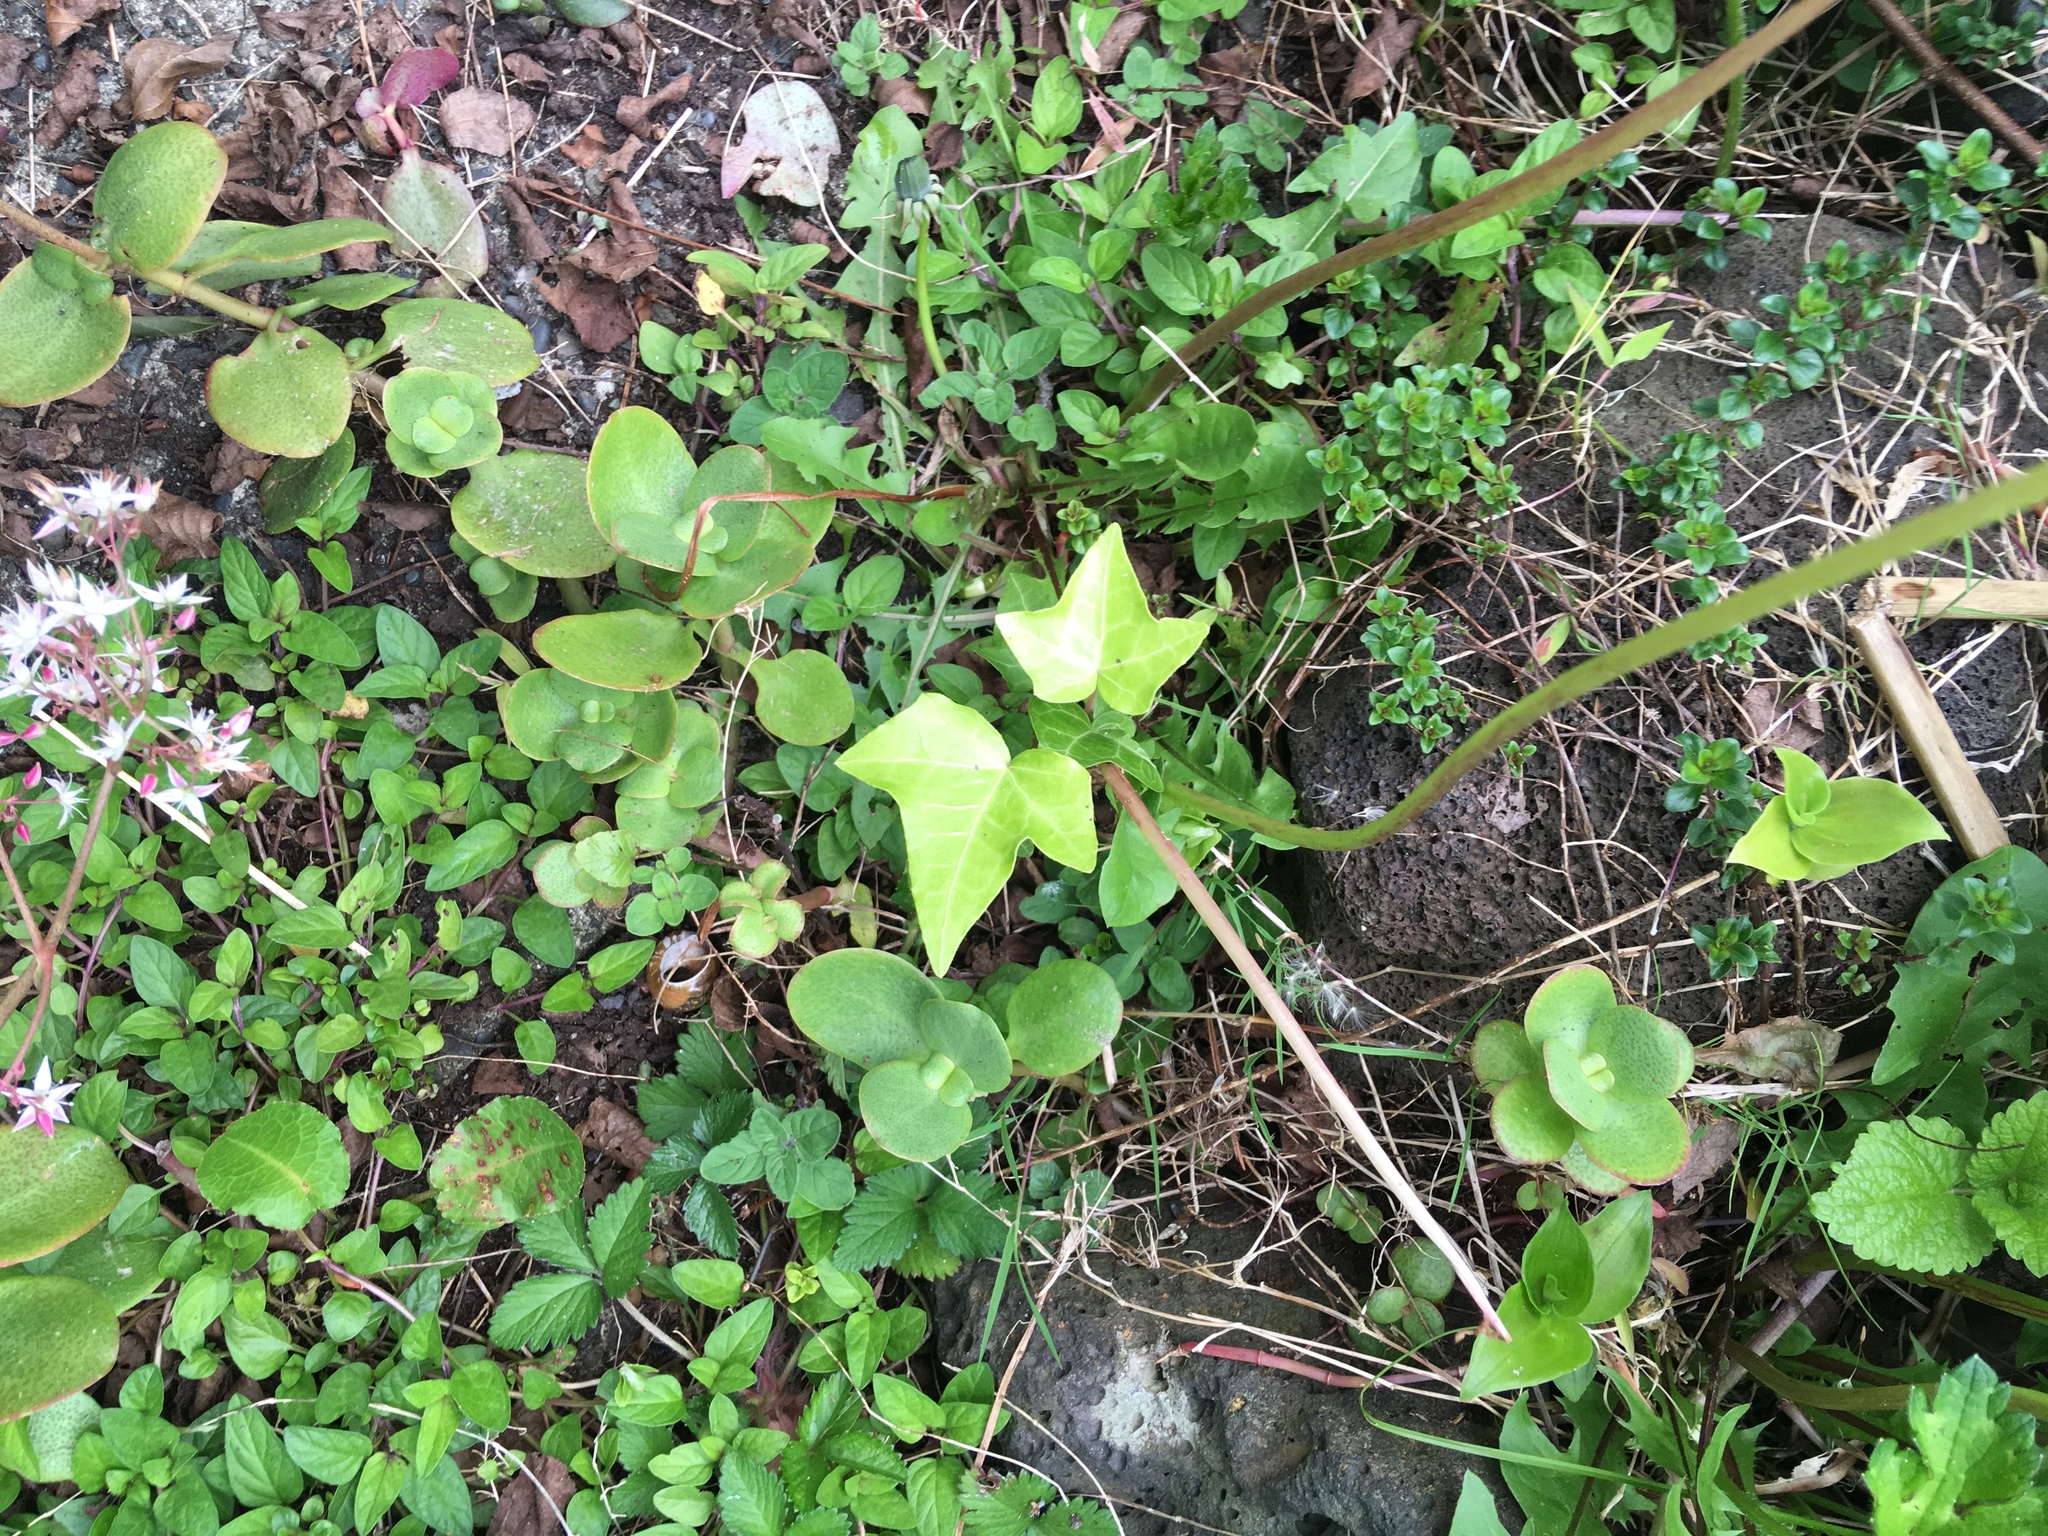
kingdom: Plantae
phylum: Tracheophyta
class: Magnoliopsida
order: Apiales
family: Araliaceae
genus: Hedera
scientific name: Hedera helix
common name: Ivy
